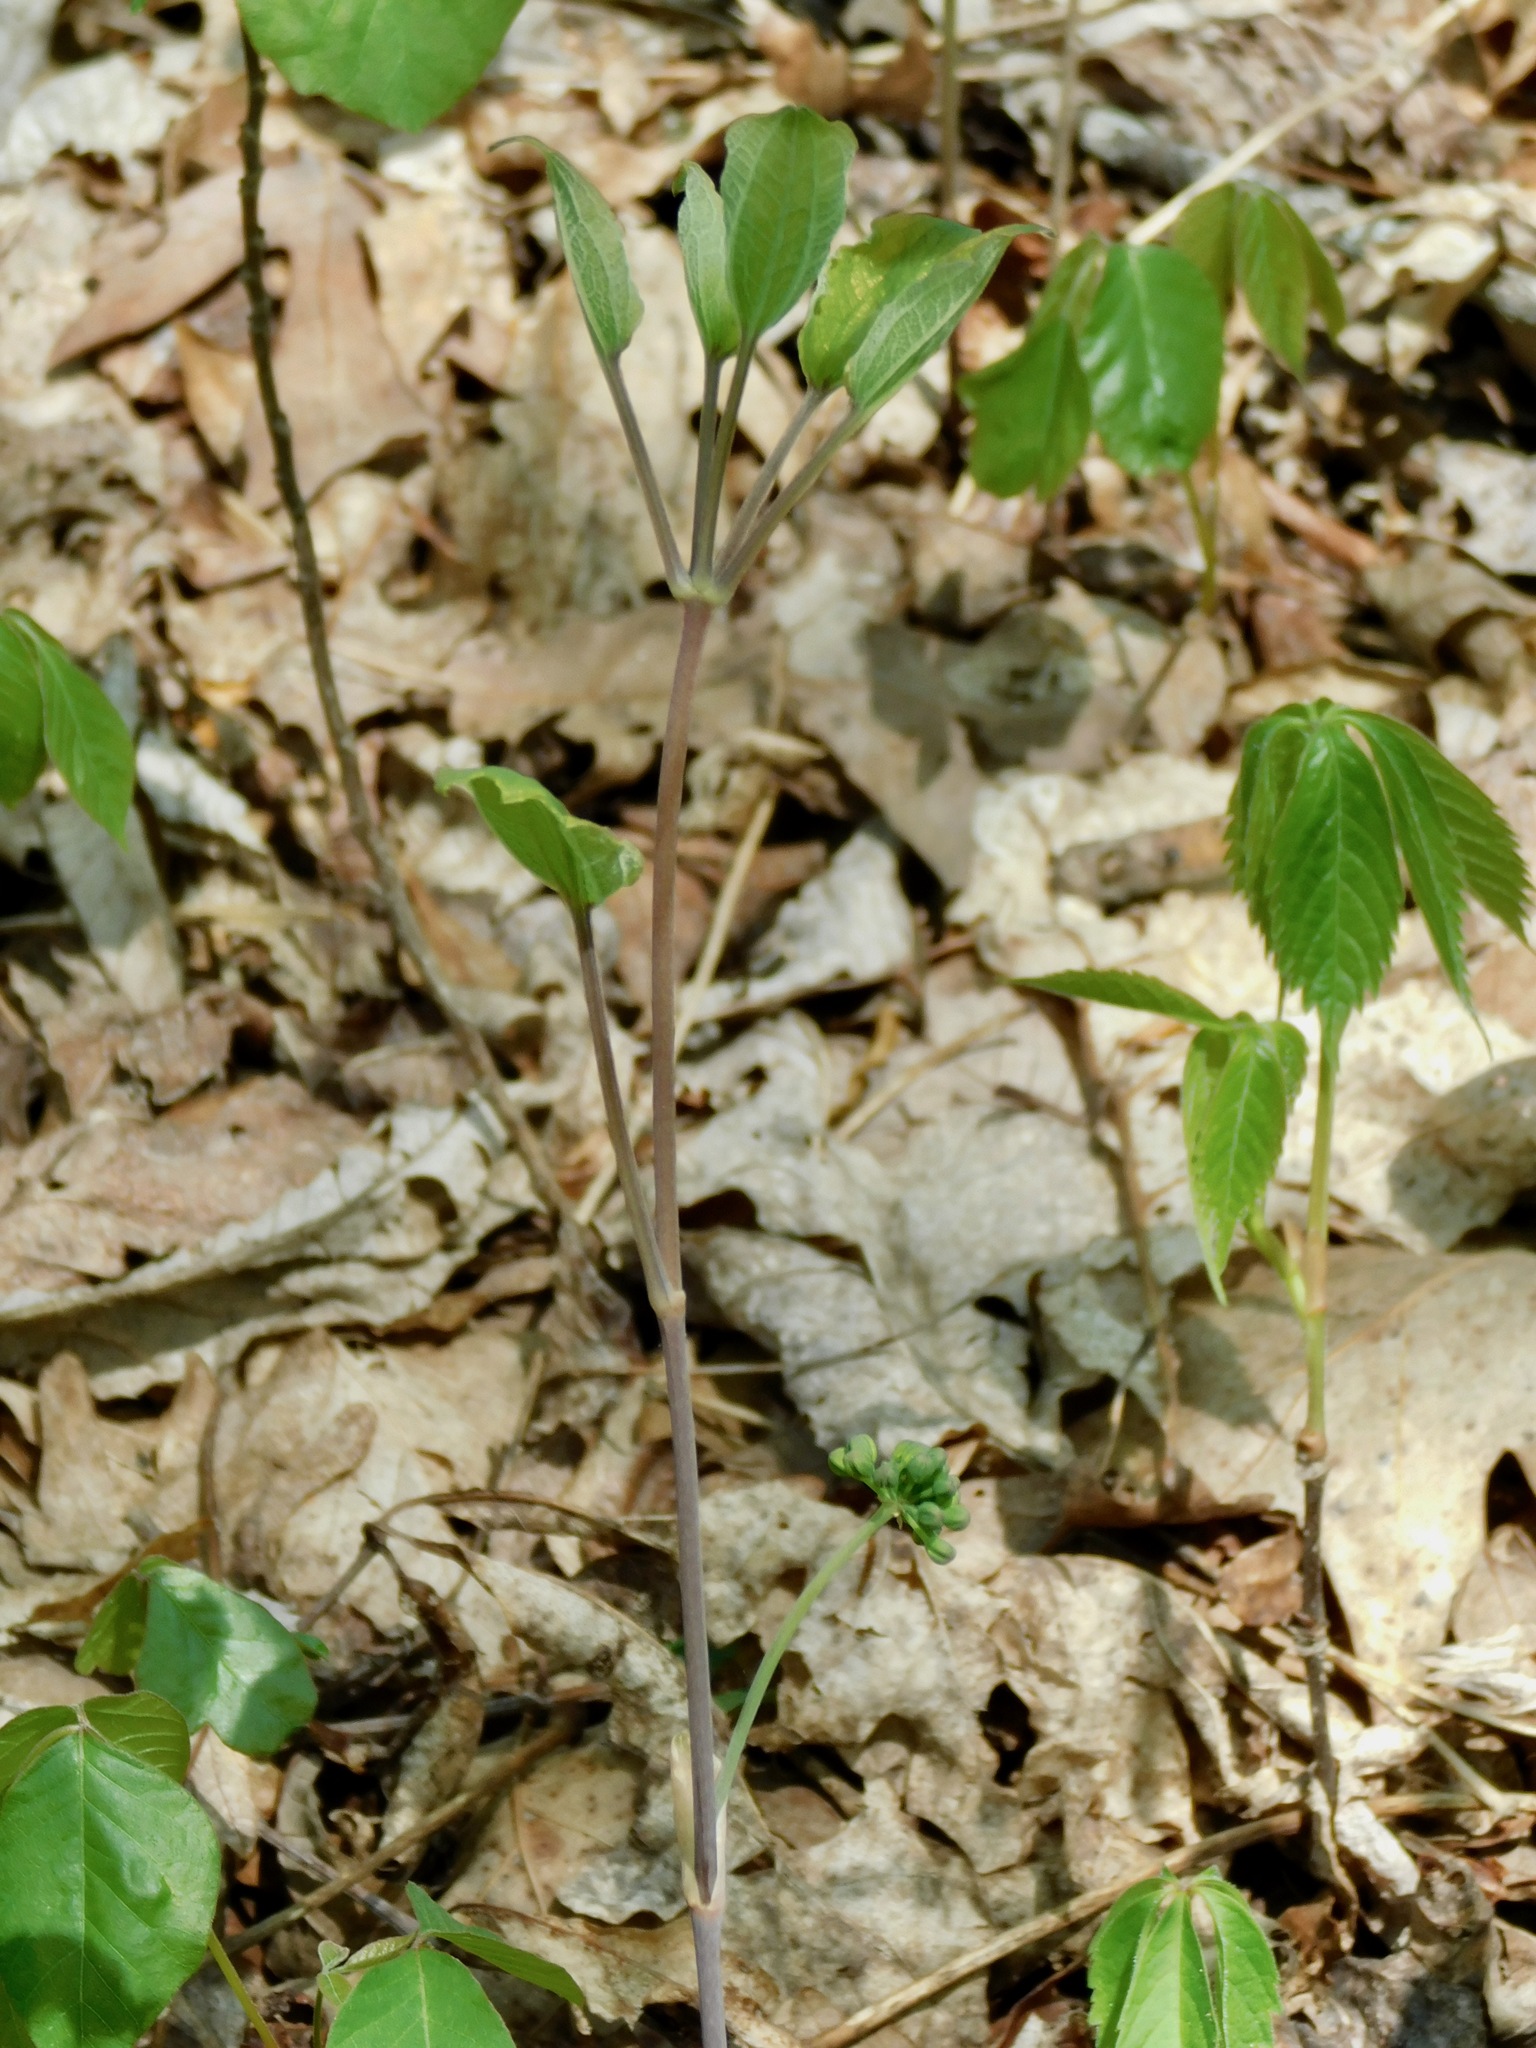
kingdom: Plantae
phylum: Tracheophyta
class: Liliopsida
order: Liliales
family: Smilacaceae
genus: Smilax
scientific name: Smilax hugeri
